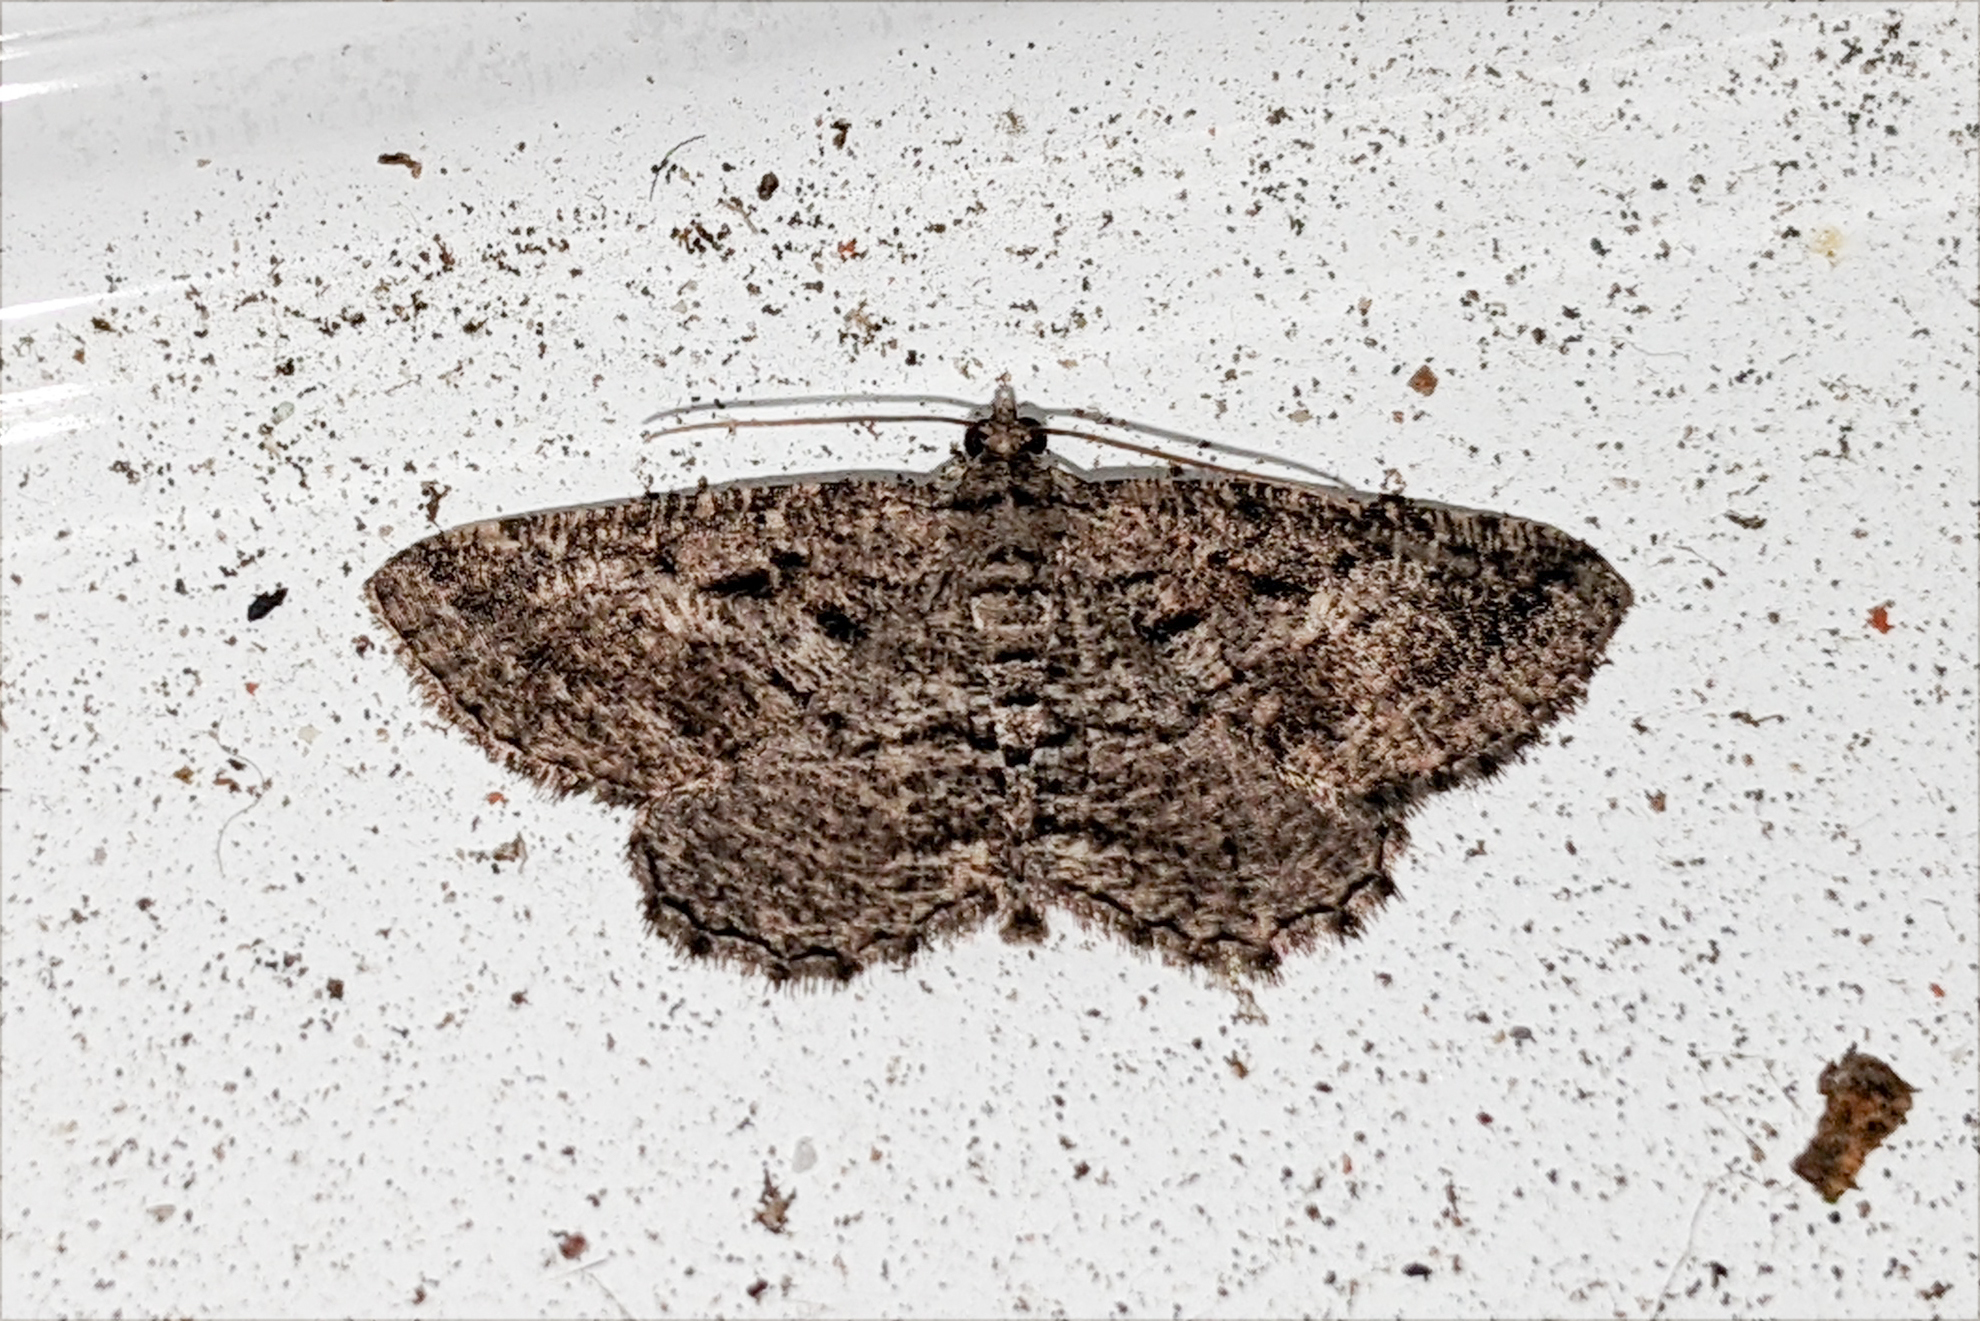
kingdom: Animalia
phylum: Arthropoda
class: Insecta
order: Lepidoptera
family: Geometridae
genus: Rhoptria
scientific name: Rhoptria asperaria
